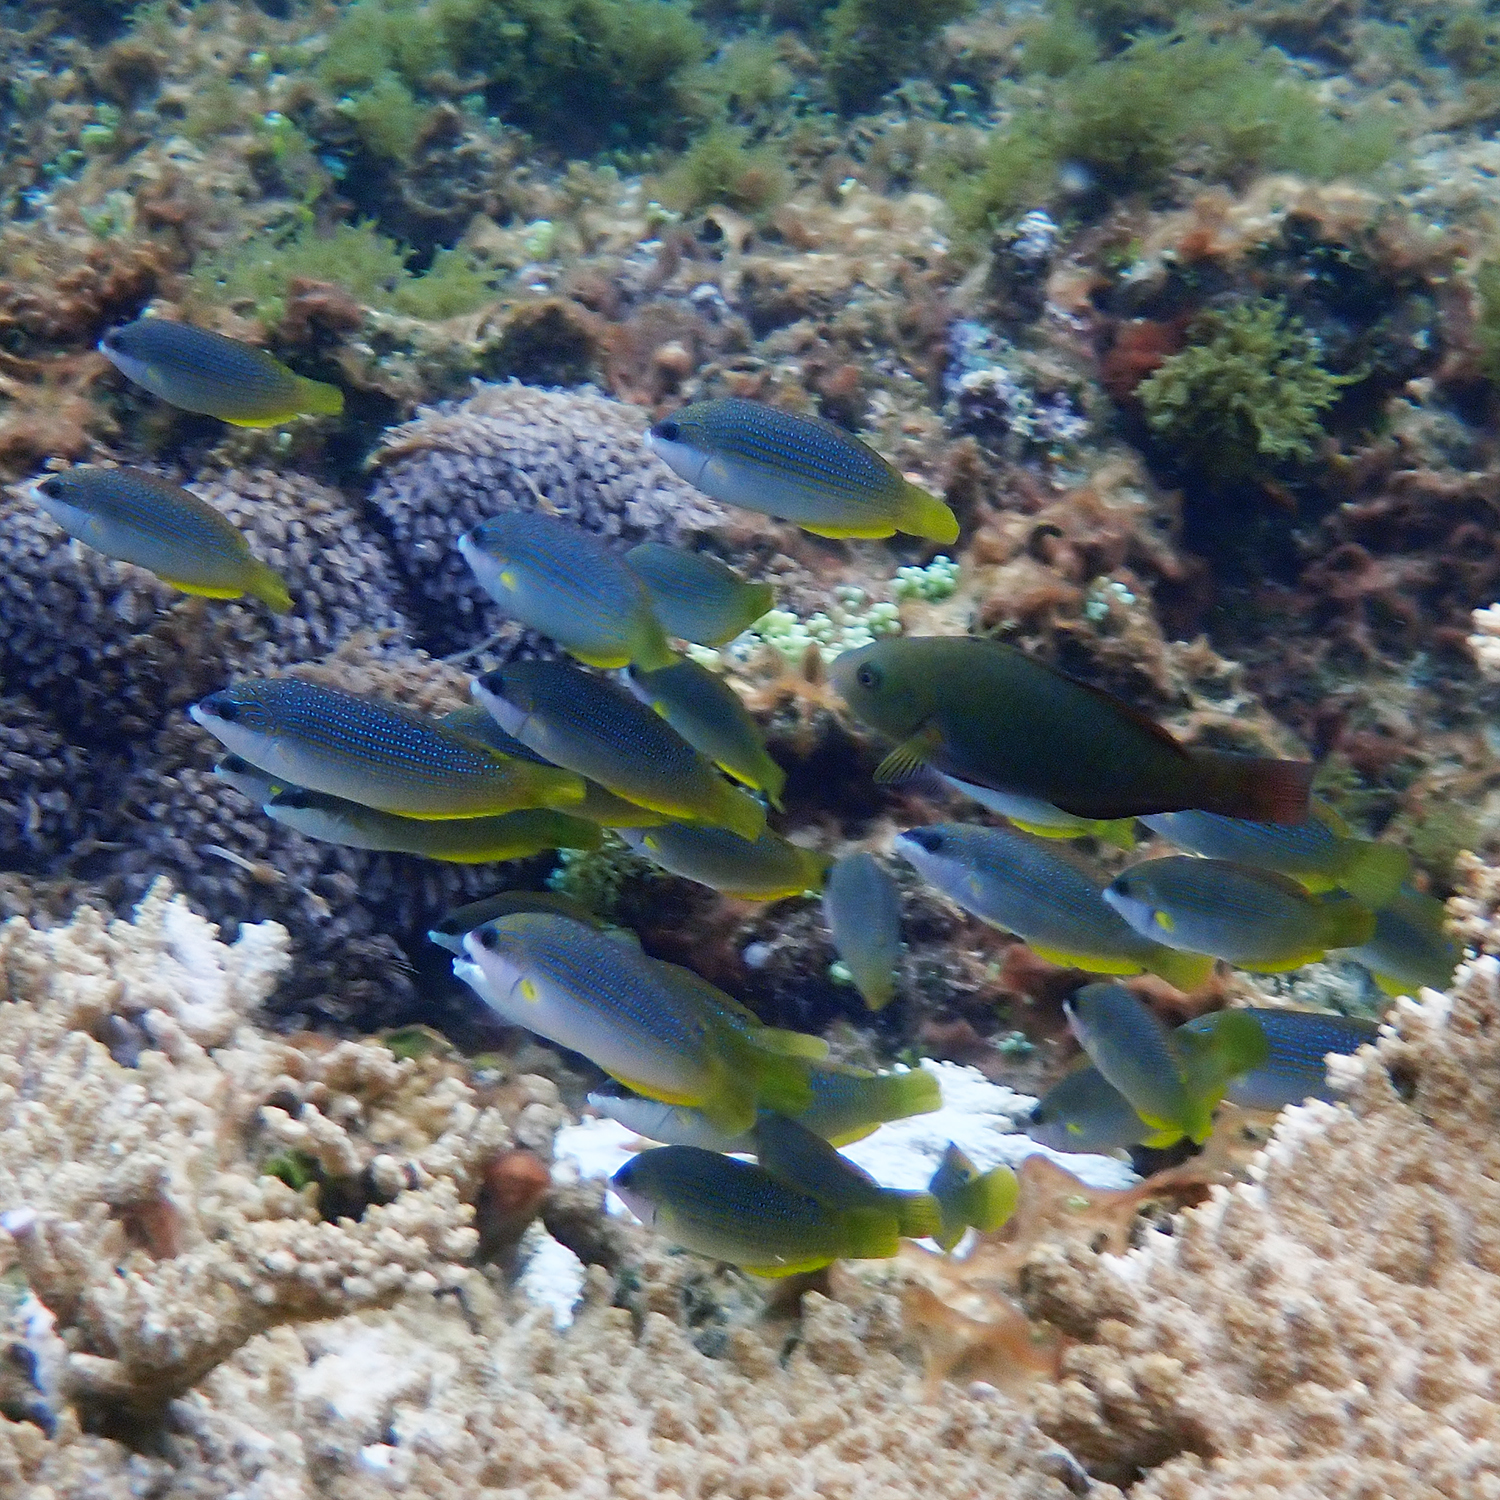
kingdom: Animalia
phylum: Chordata
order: Perciformes
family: Scaridae
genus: Scarus
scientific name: Scarus psittacus
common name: Palenose parrotfish
